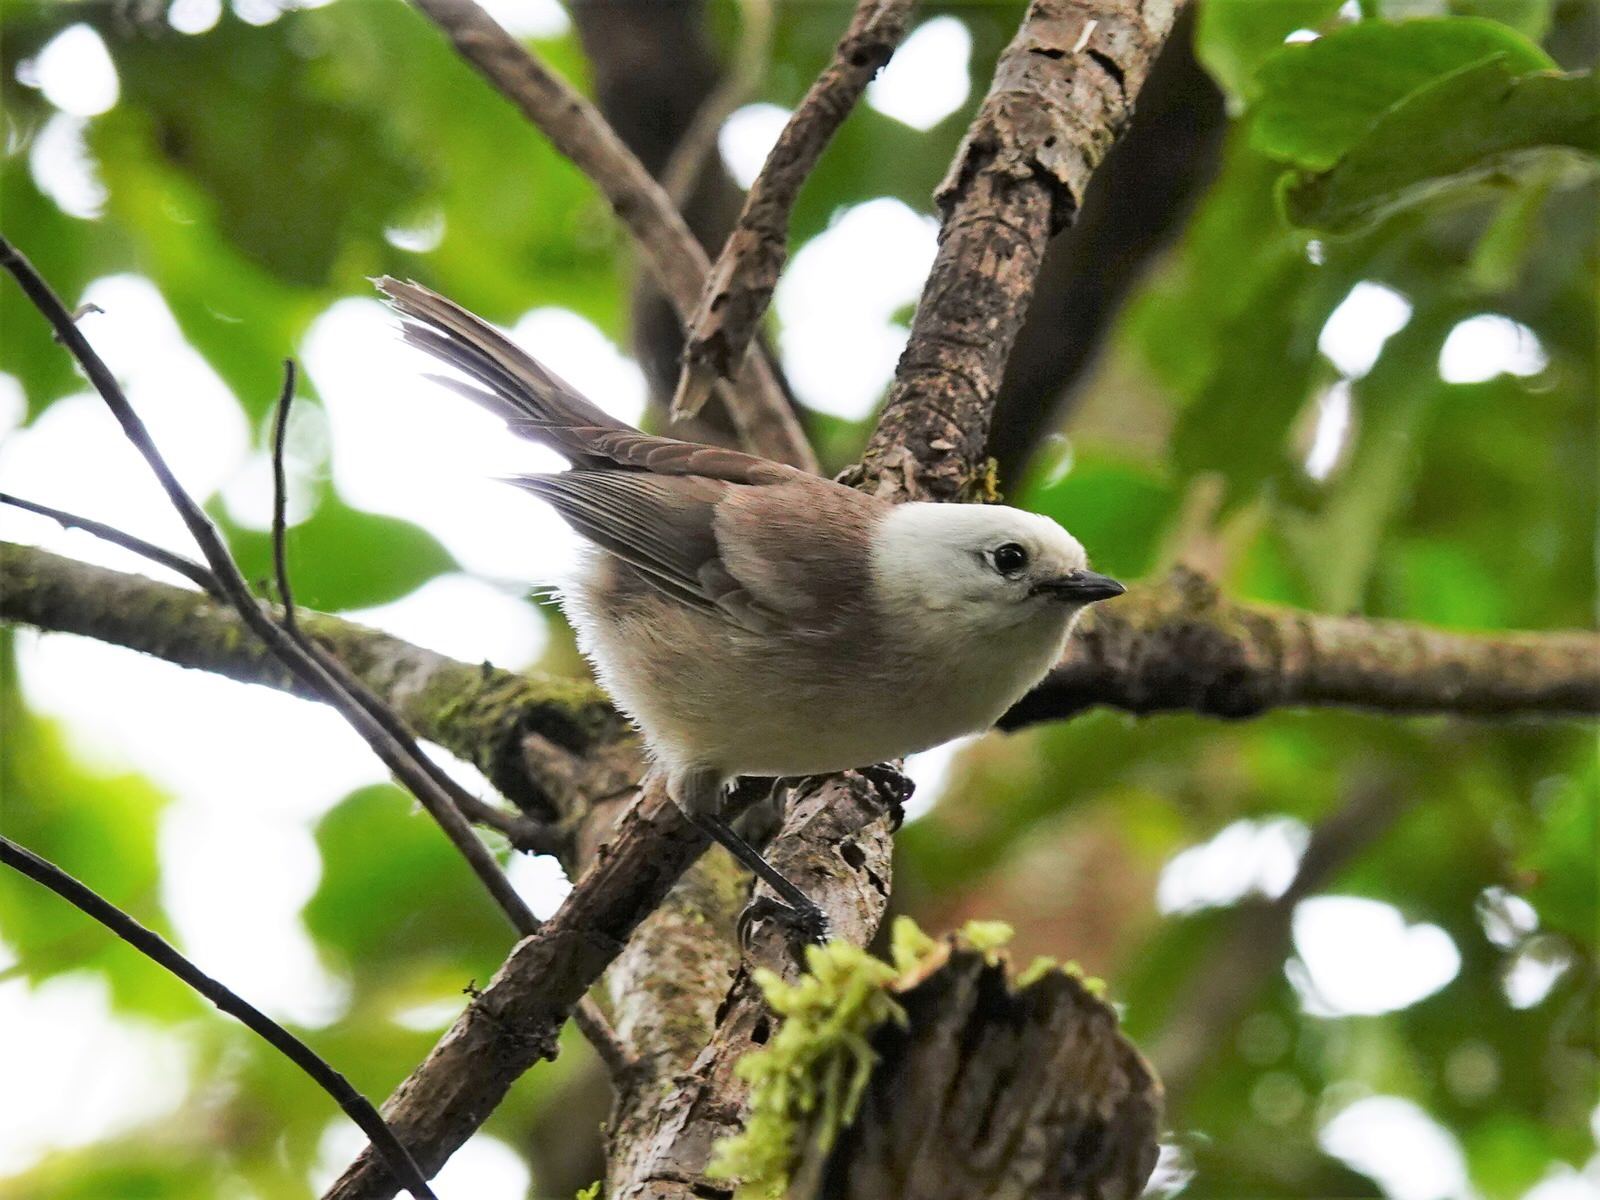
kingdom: Animalia
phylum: Chordata
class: Aves
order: Passeriformes
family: Acanthizidae
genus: Mohoua
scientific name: Mohoua albicilla
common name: Whitehead
